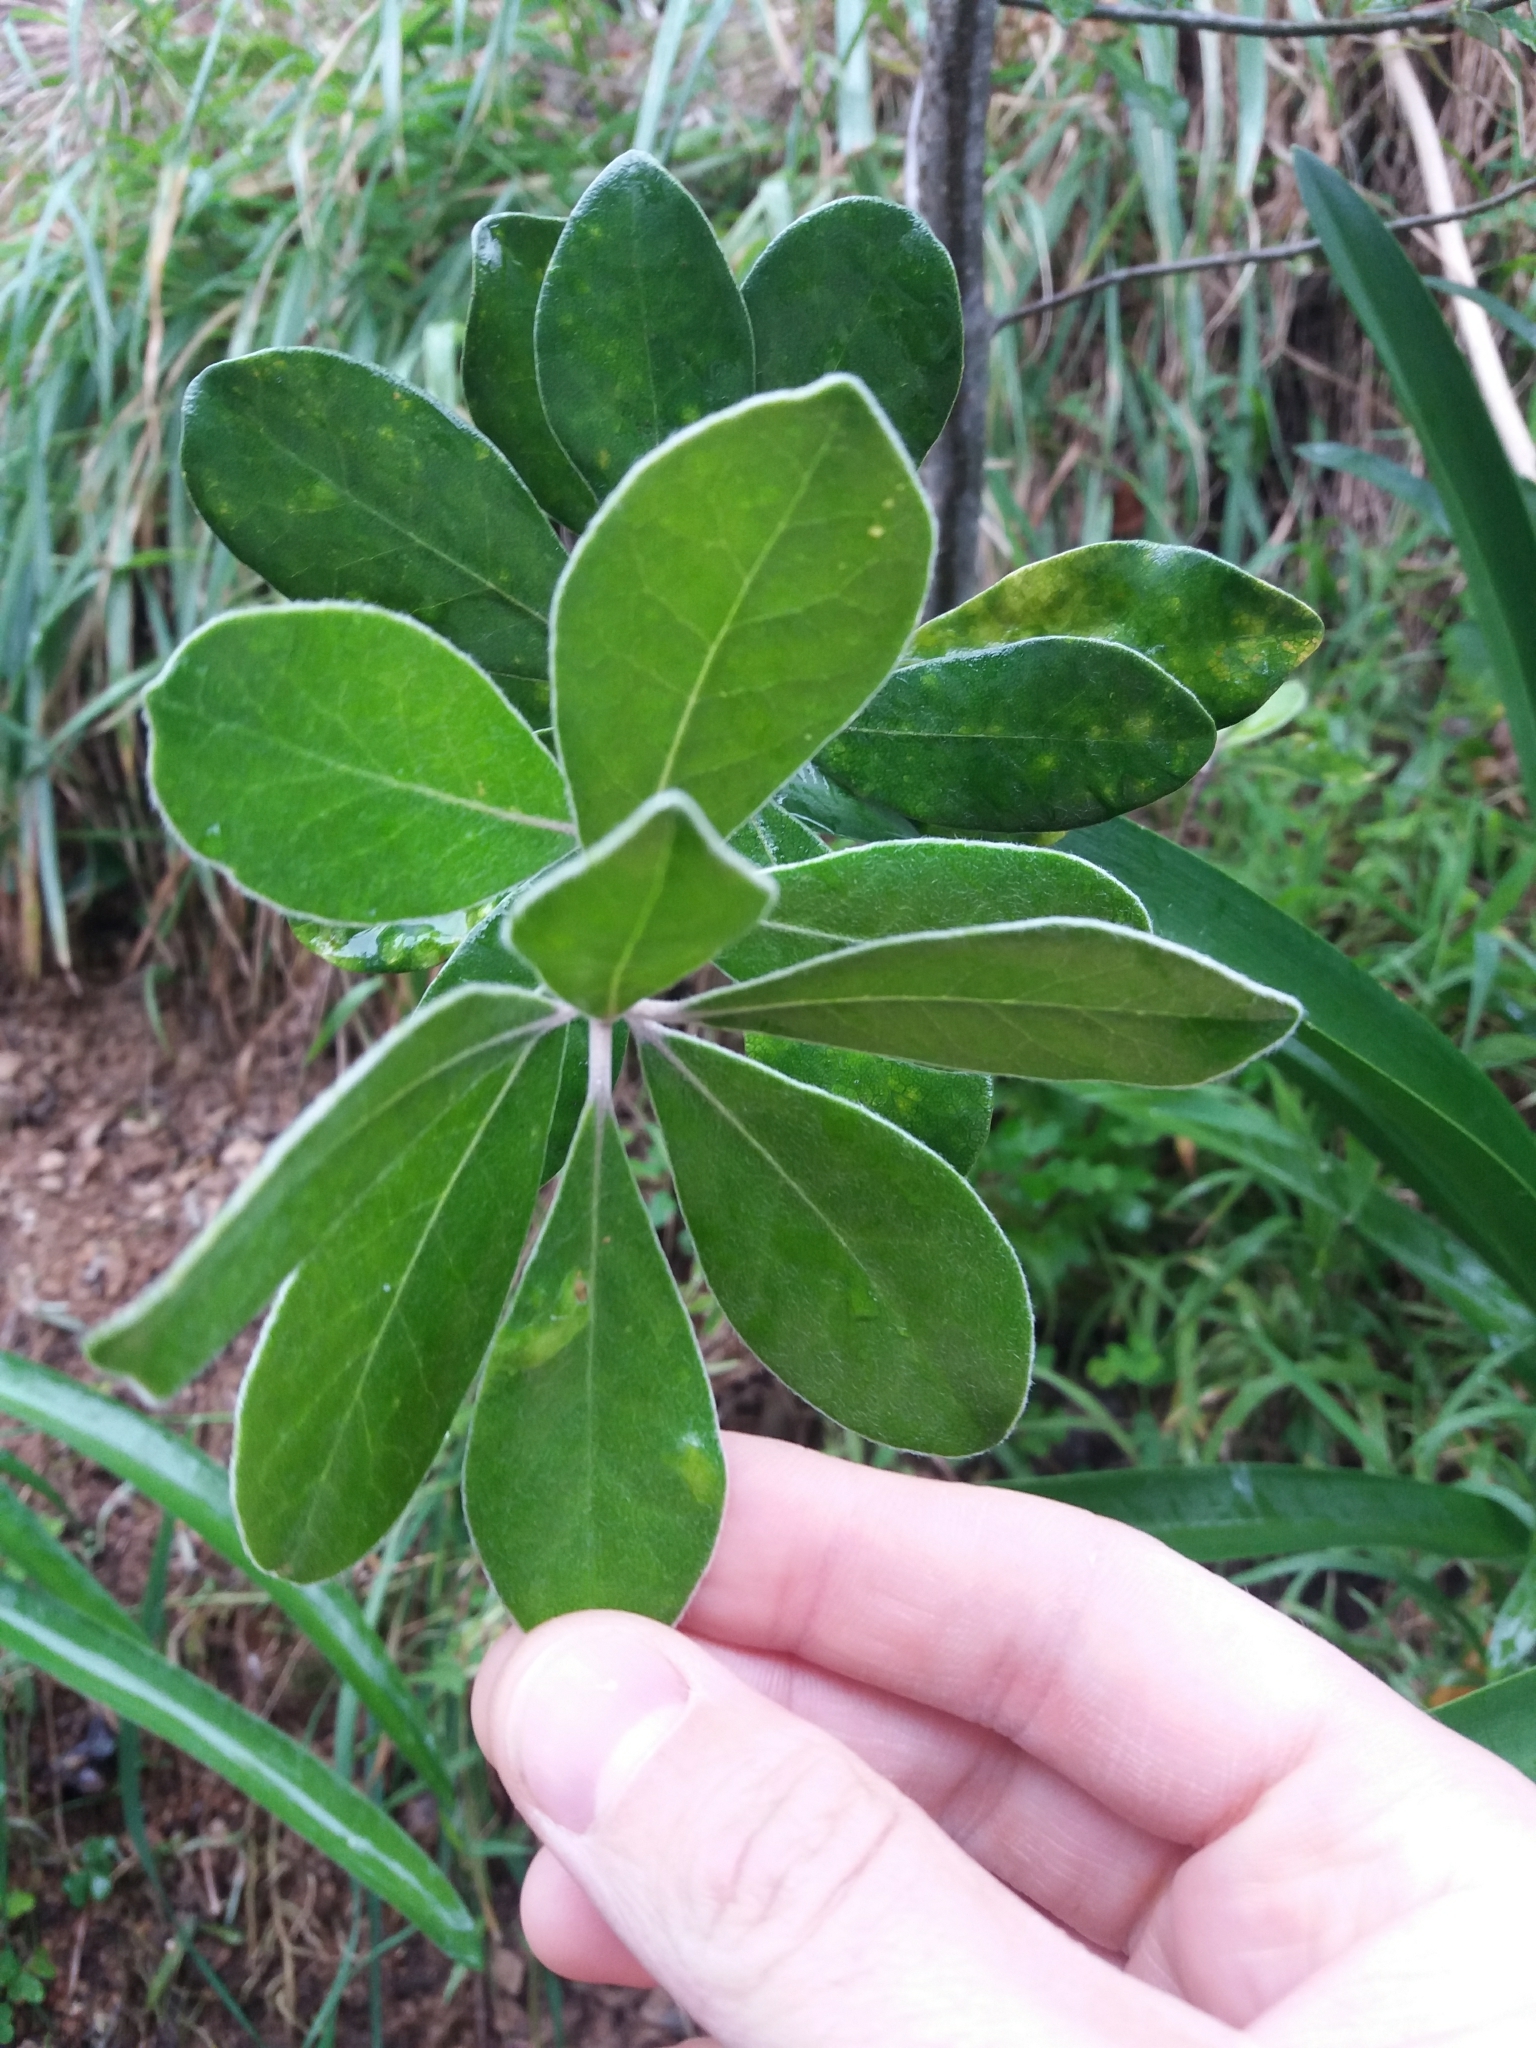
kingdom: Plantae
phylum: Tracheophyta
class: Magnoliopsida
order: Apiales
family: Pittosporaceae
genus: Pittosporum
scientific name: Pittosporum crassifolium
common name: Karo
